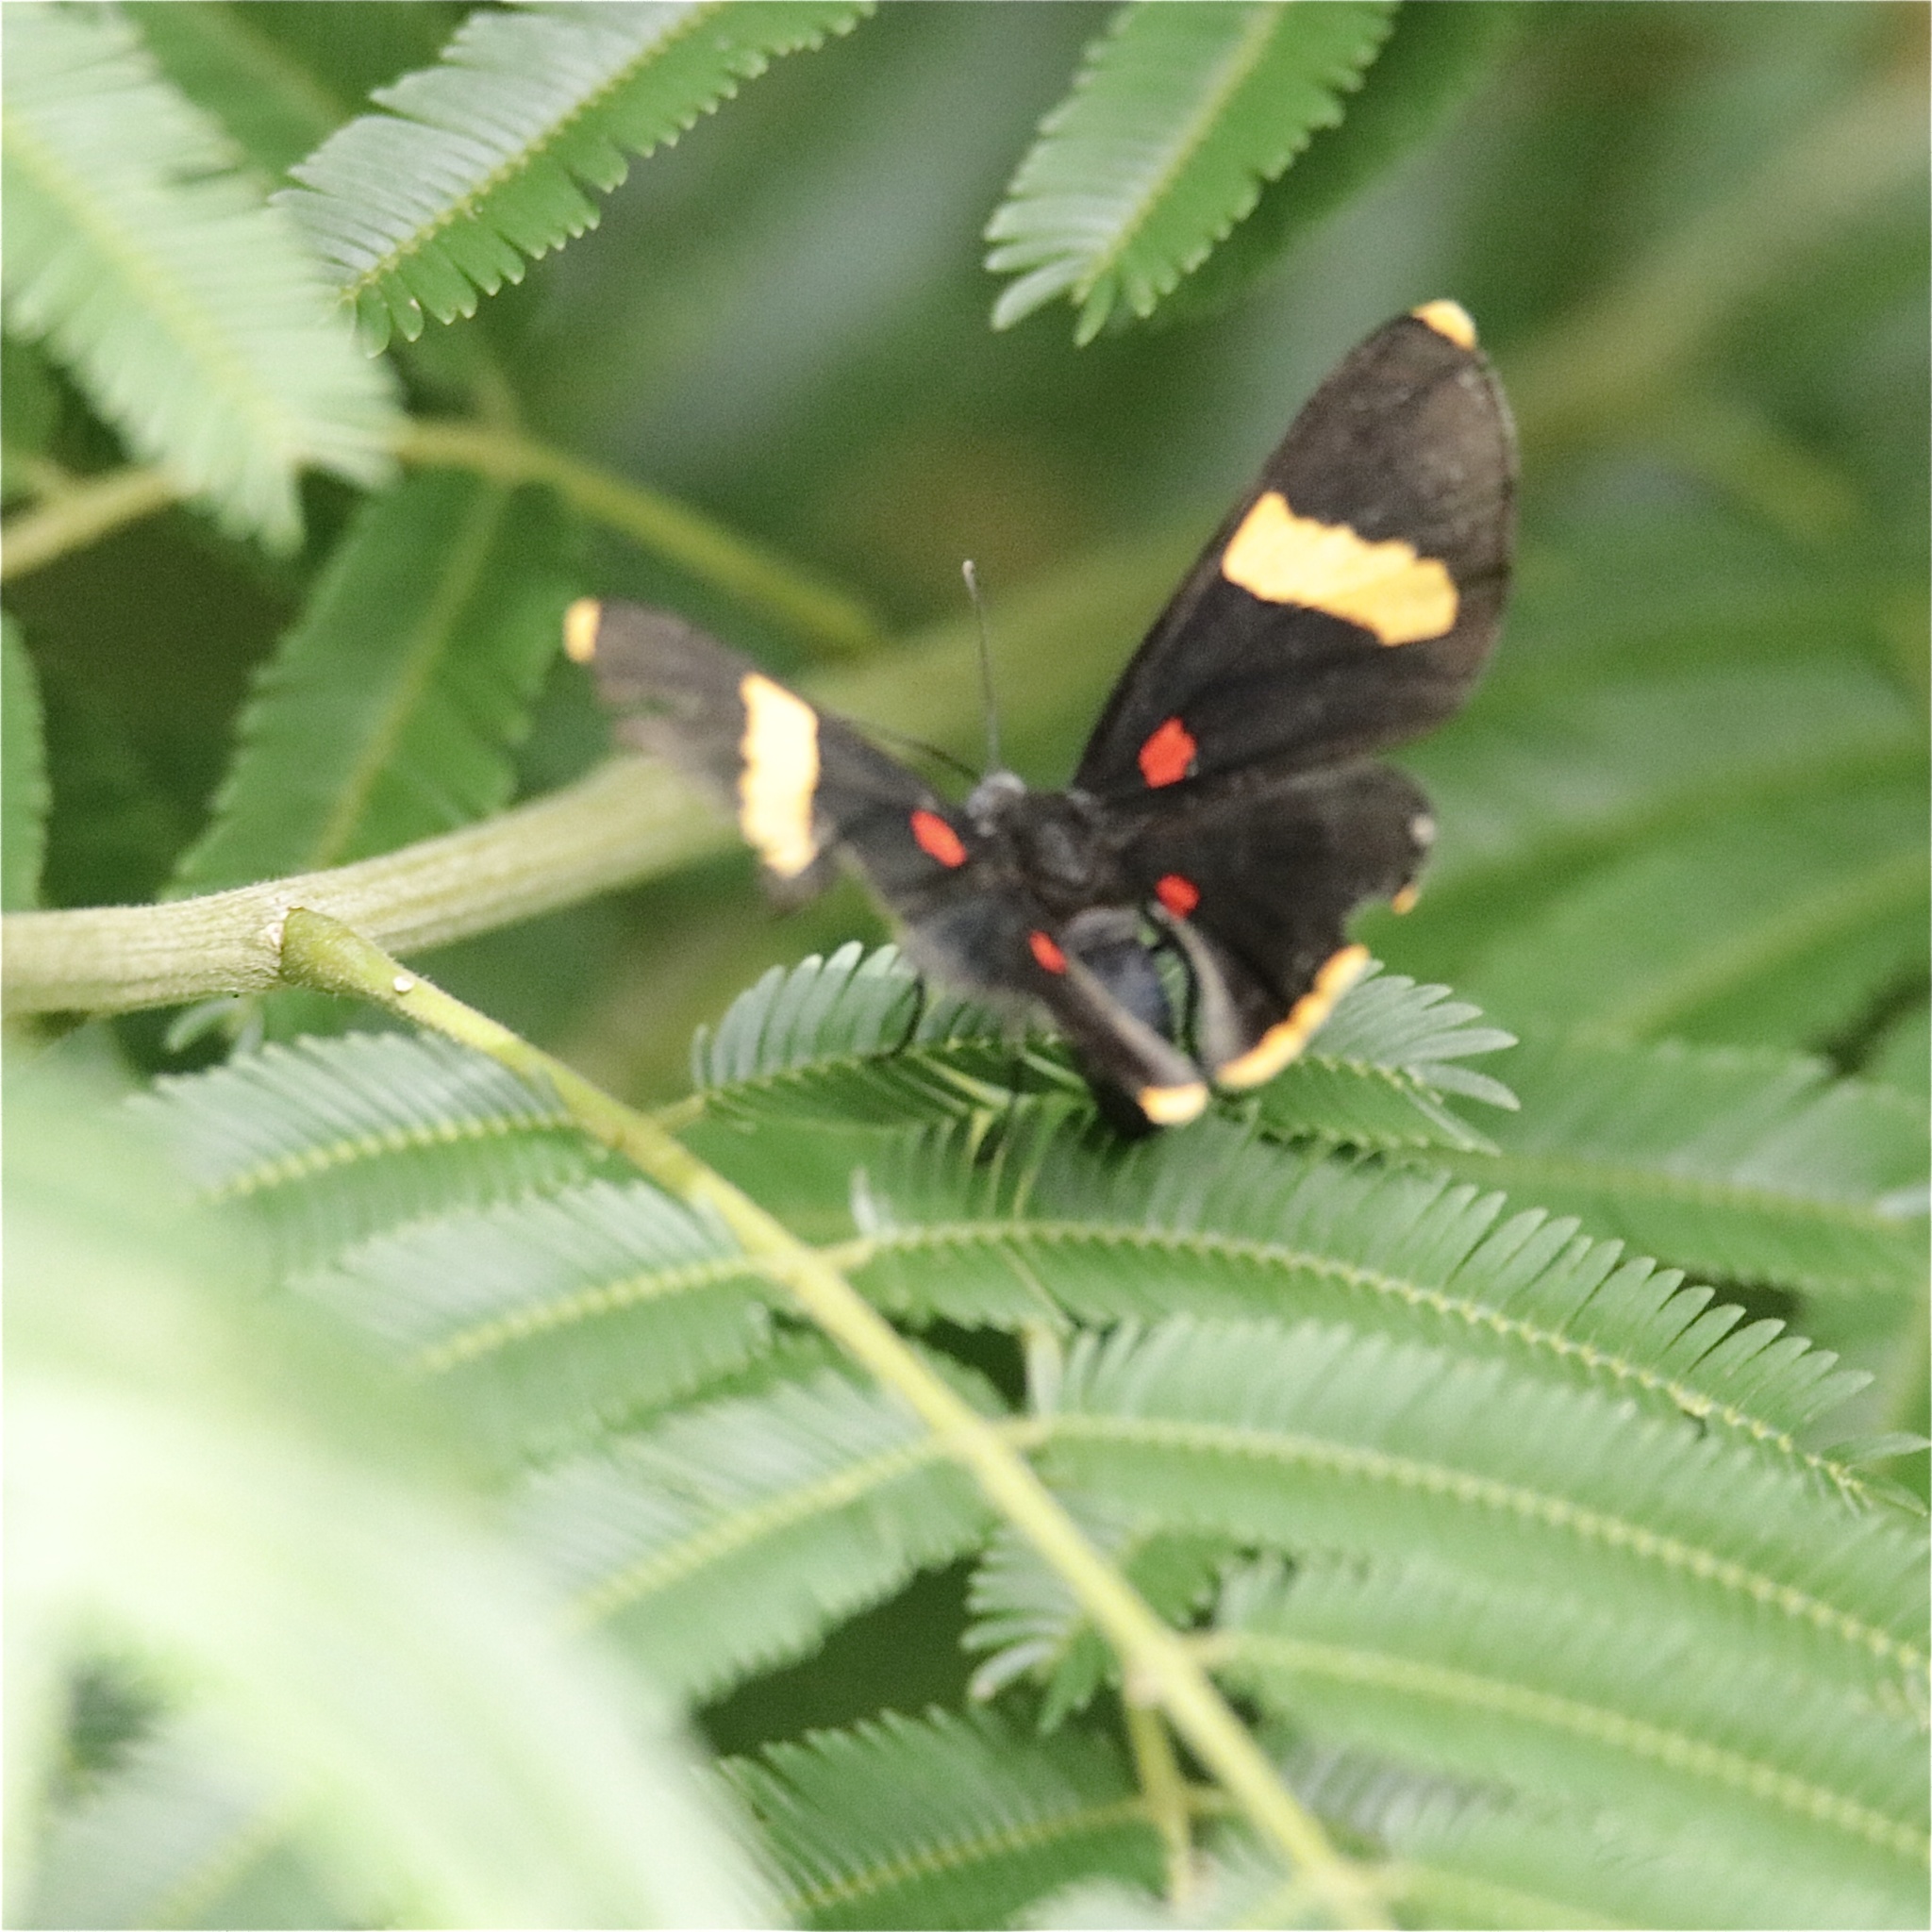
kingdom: Animalia
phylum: Arthropoda
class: Insecta
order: Lepidoptera
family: Lycaenidae
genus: Melanis
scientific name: Melanis electron
